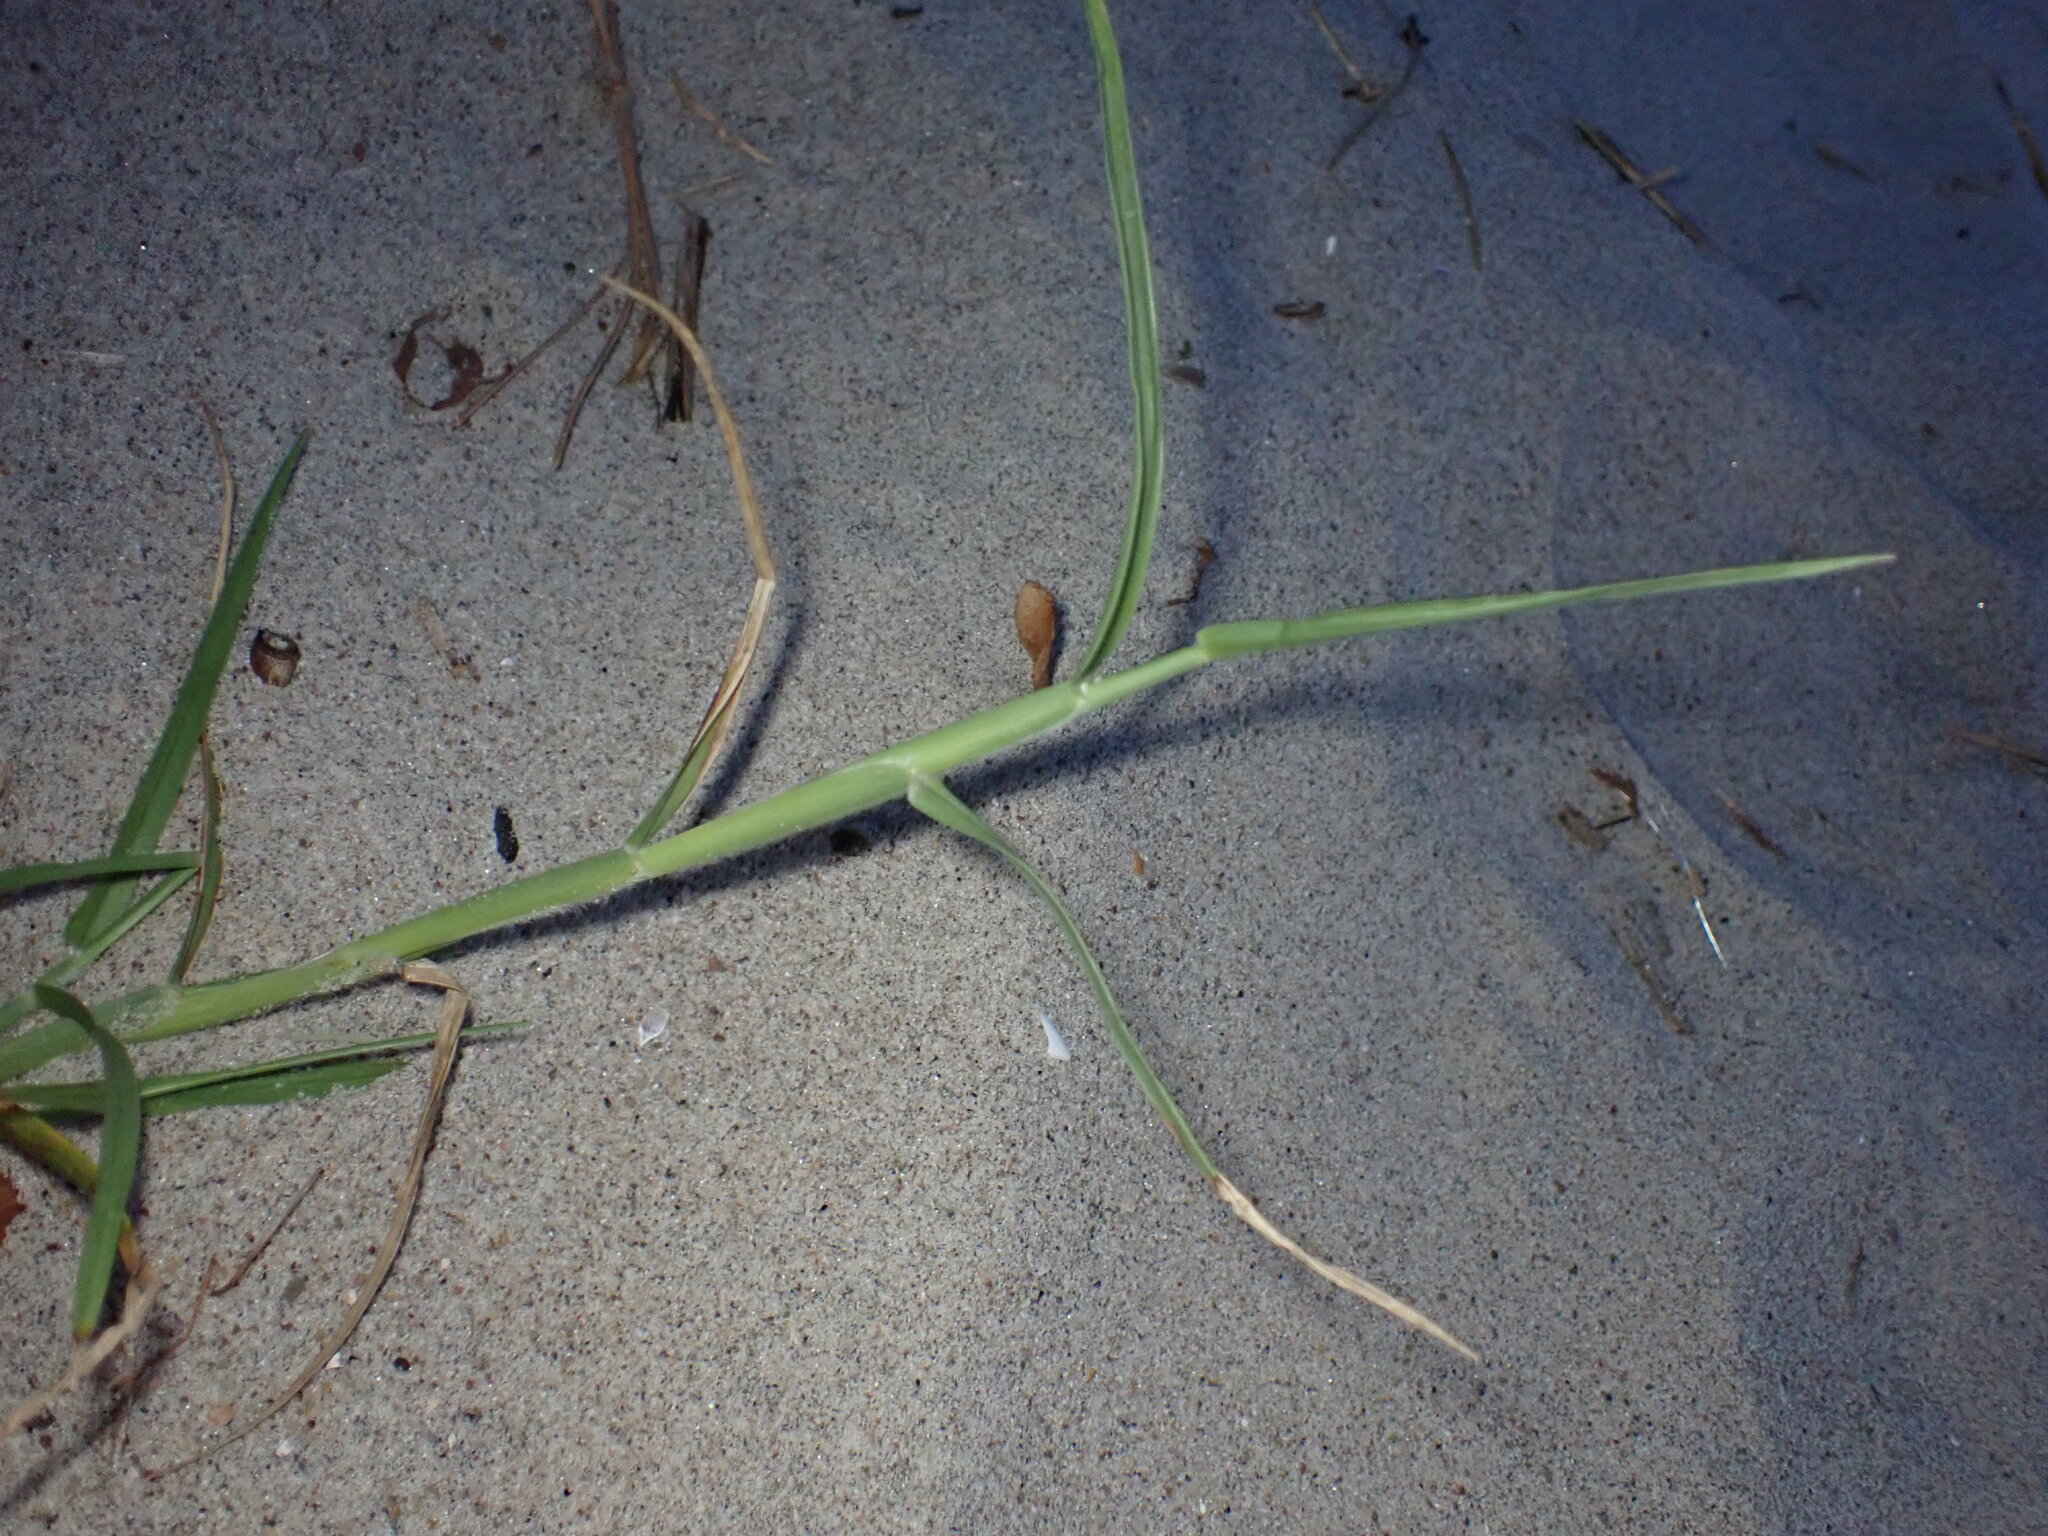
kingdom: Plantae
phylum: Tracheophyta
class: Liliopsida
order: Poales
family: Poaceae
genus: Cenchrus
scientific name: Cenchrus longispinus
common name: Mat sandbur
